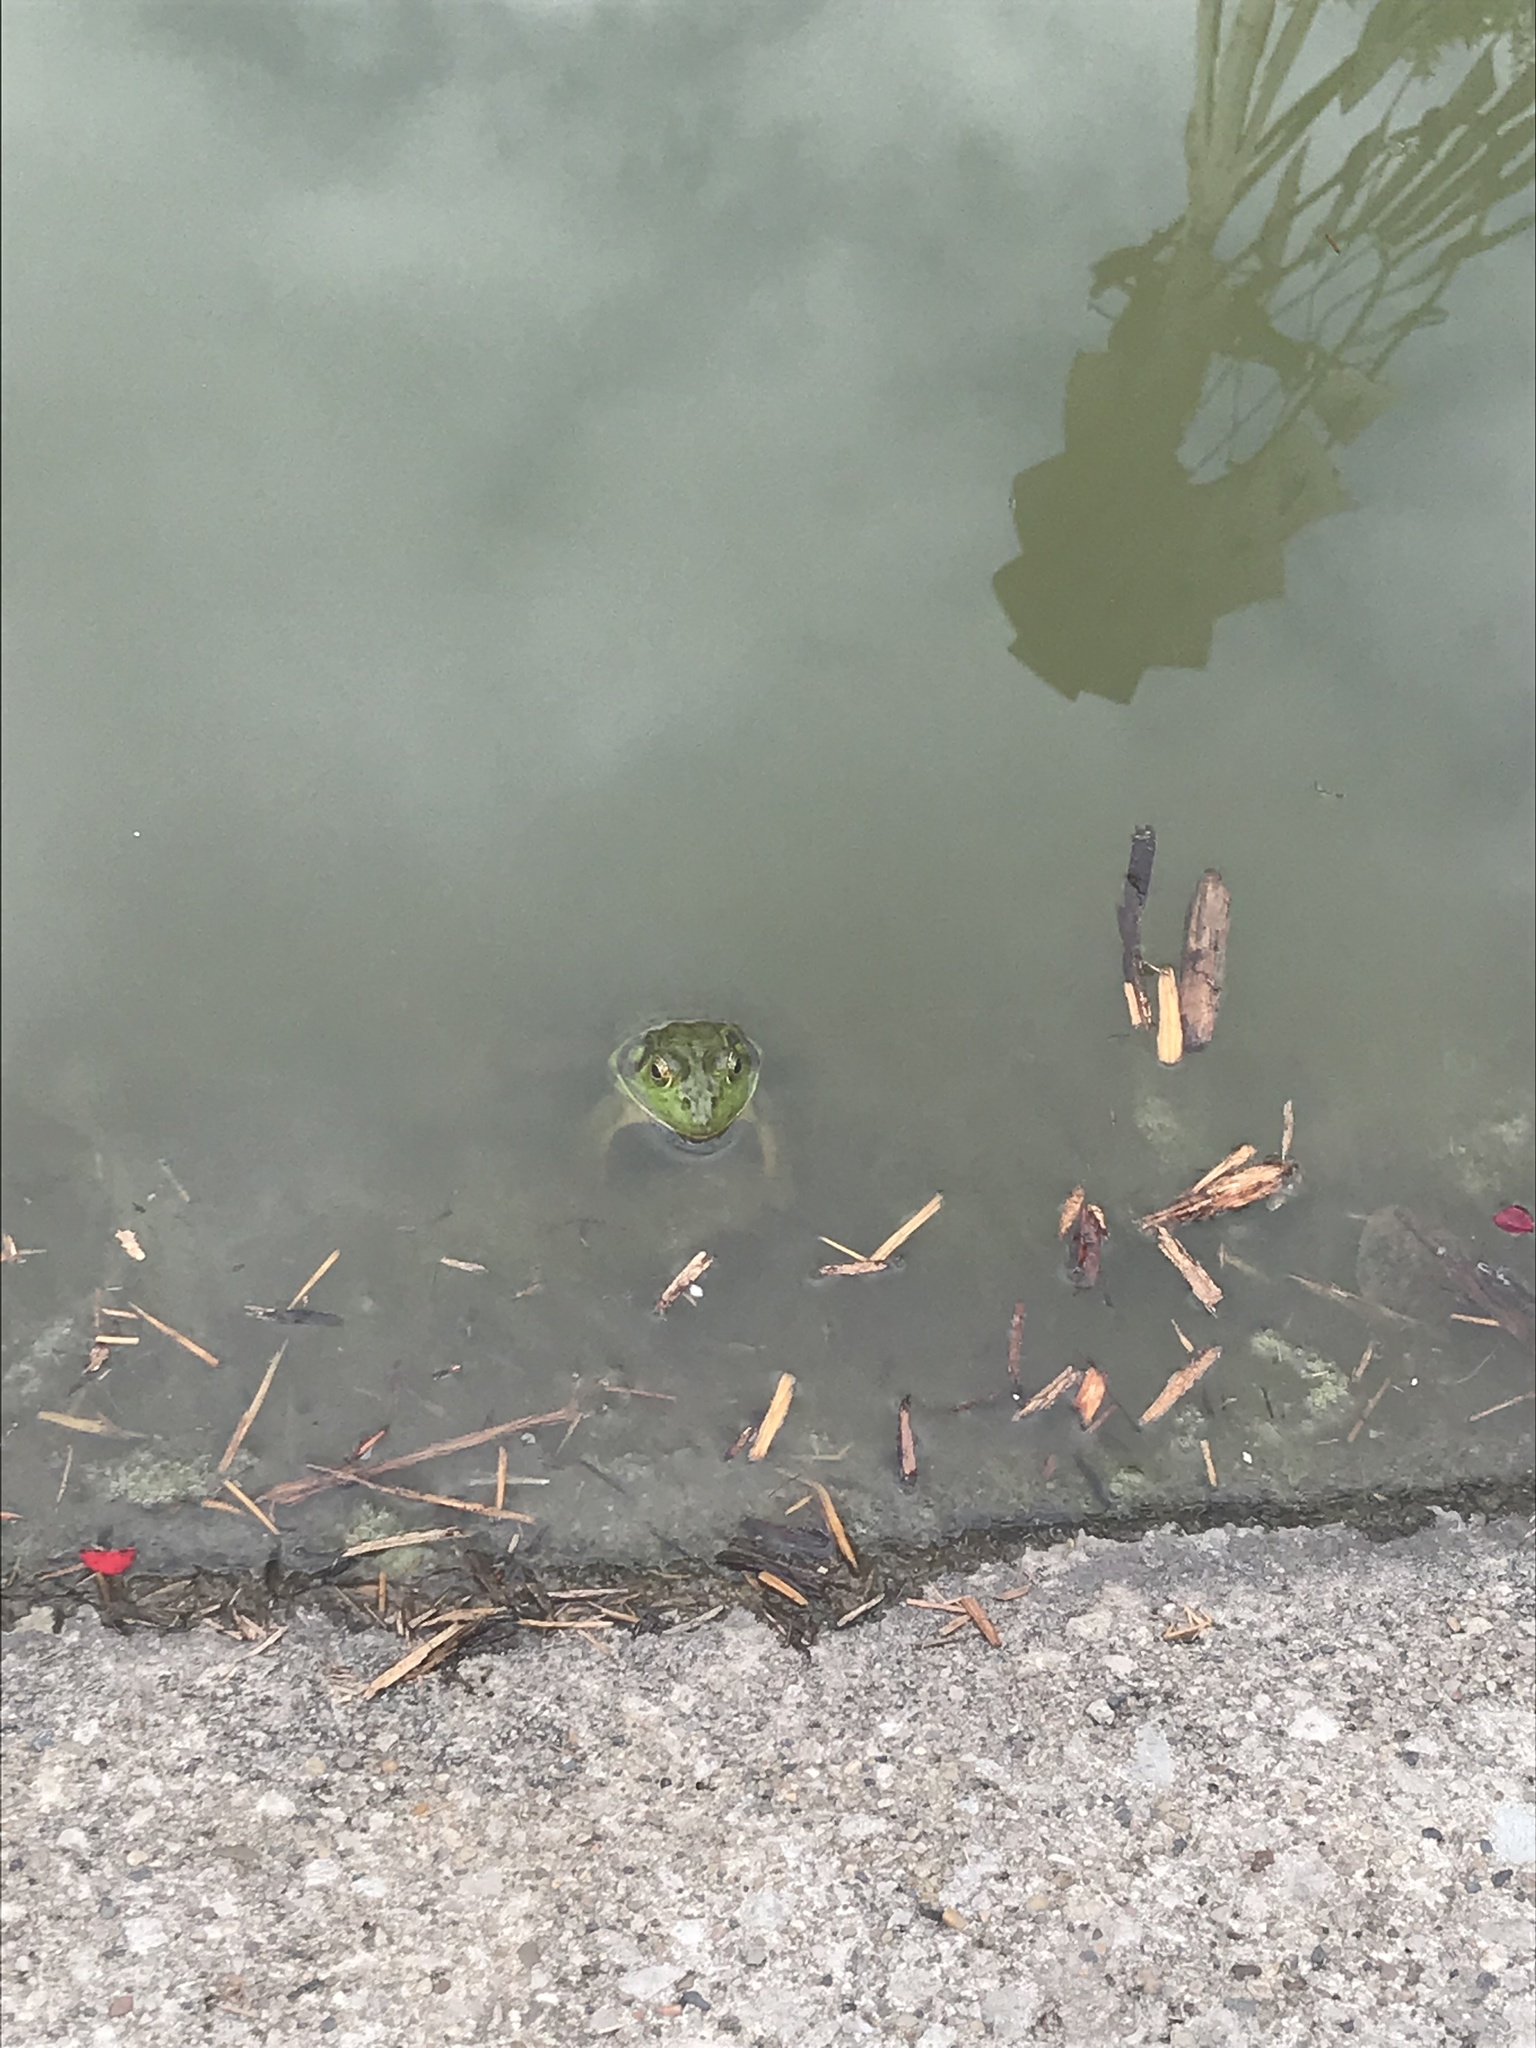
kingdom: Animalia
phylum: Chordata
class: Amphibia
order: Anura
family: Ranidae
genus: Lithobates
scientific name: Lithobates catesbeianus
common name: American bullfrog
